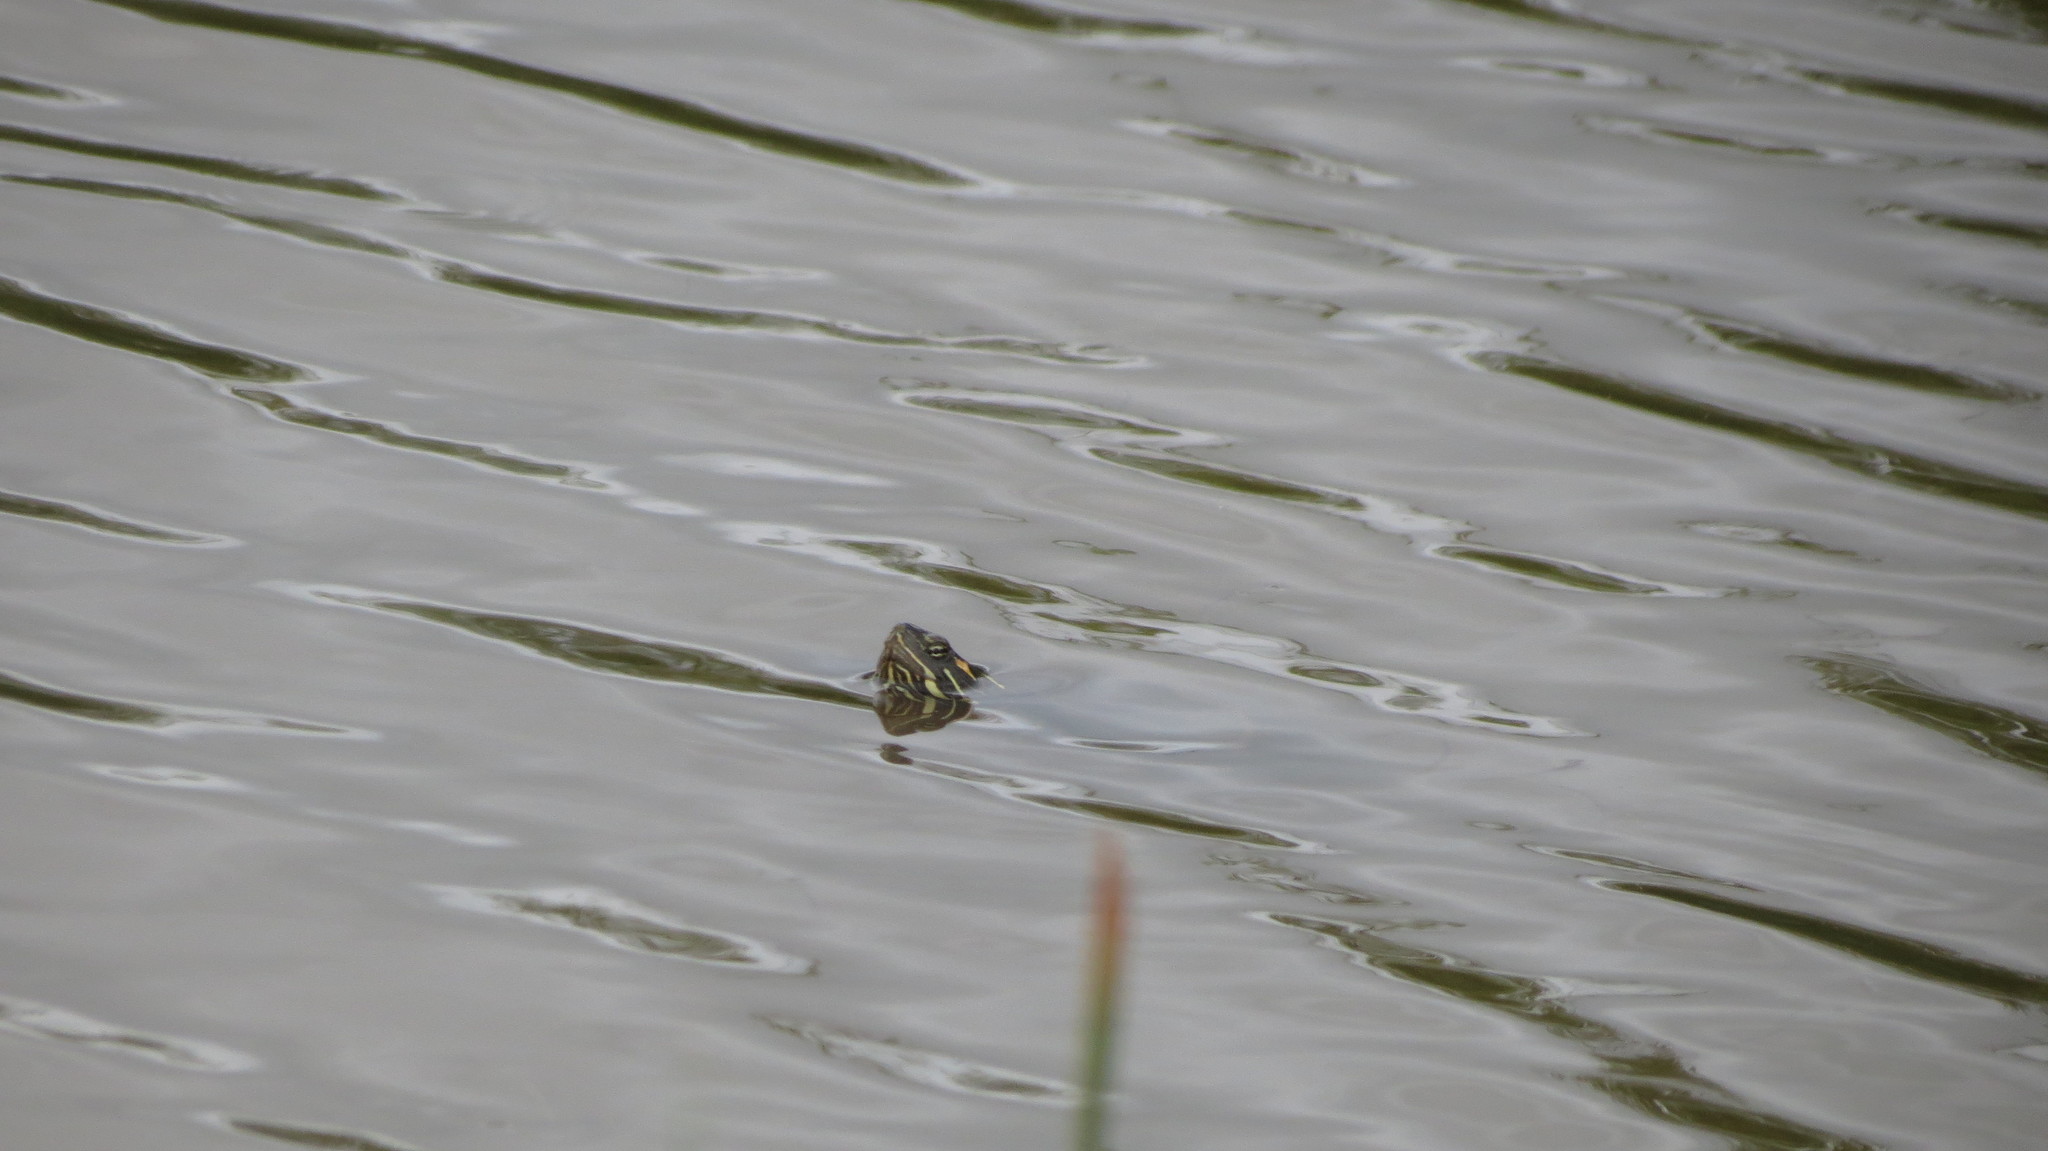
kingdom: Animalia
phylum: Chordata
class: Testudines
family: Emydidae
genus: Chrysemys
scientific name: Chrysemys picta
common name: Painted turtle
